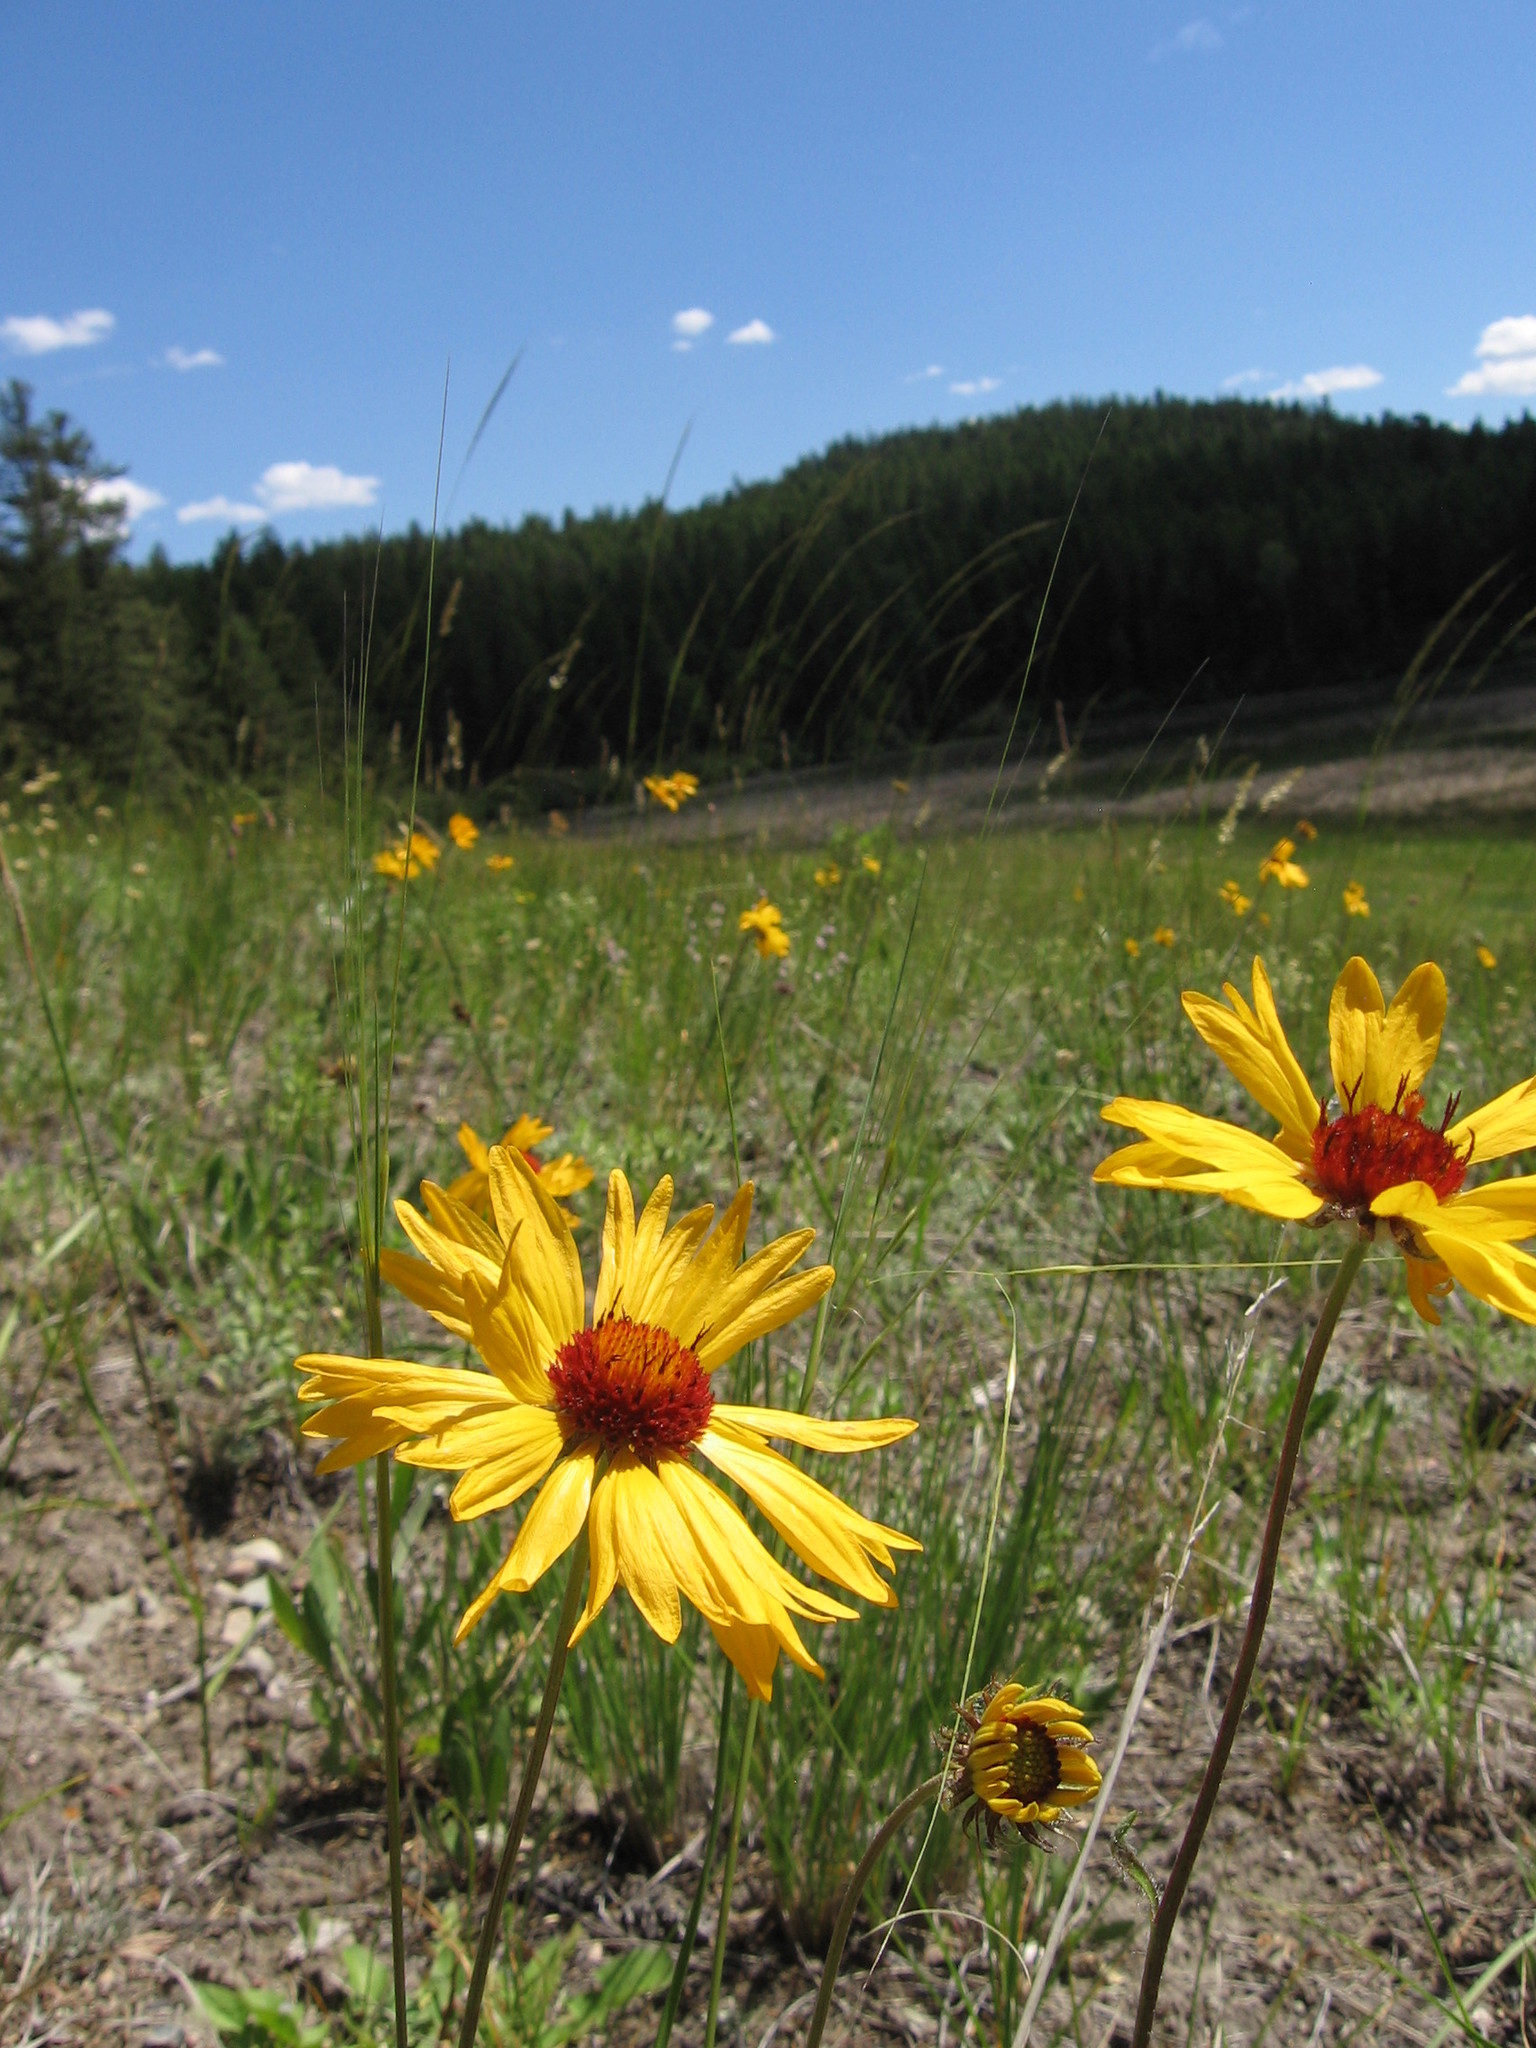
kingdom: Plantae
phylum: Tracheophyta
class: Magnoliopsida
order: Asterales
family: Asteraceae
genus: Gaillardia
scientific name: Gaillardia aristata
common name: Blanket-flower
